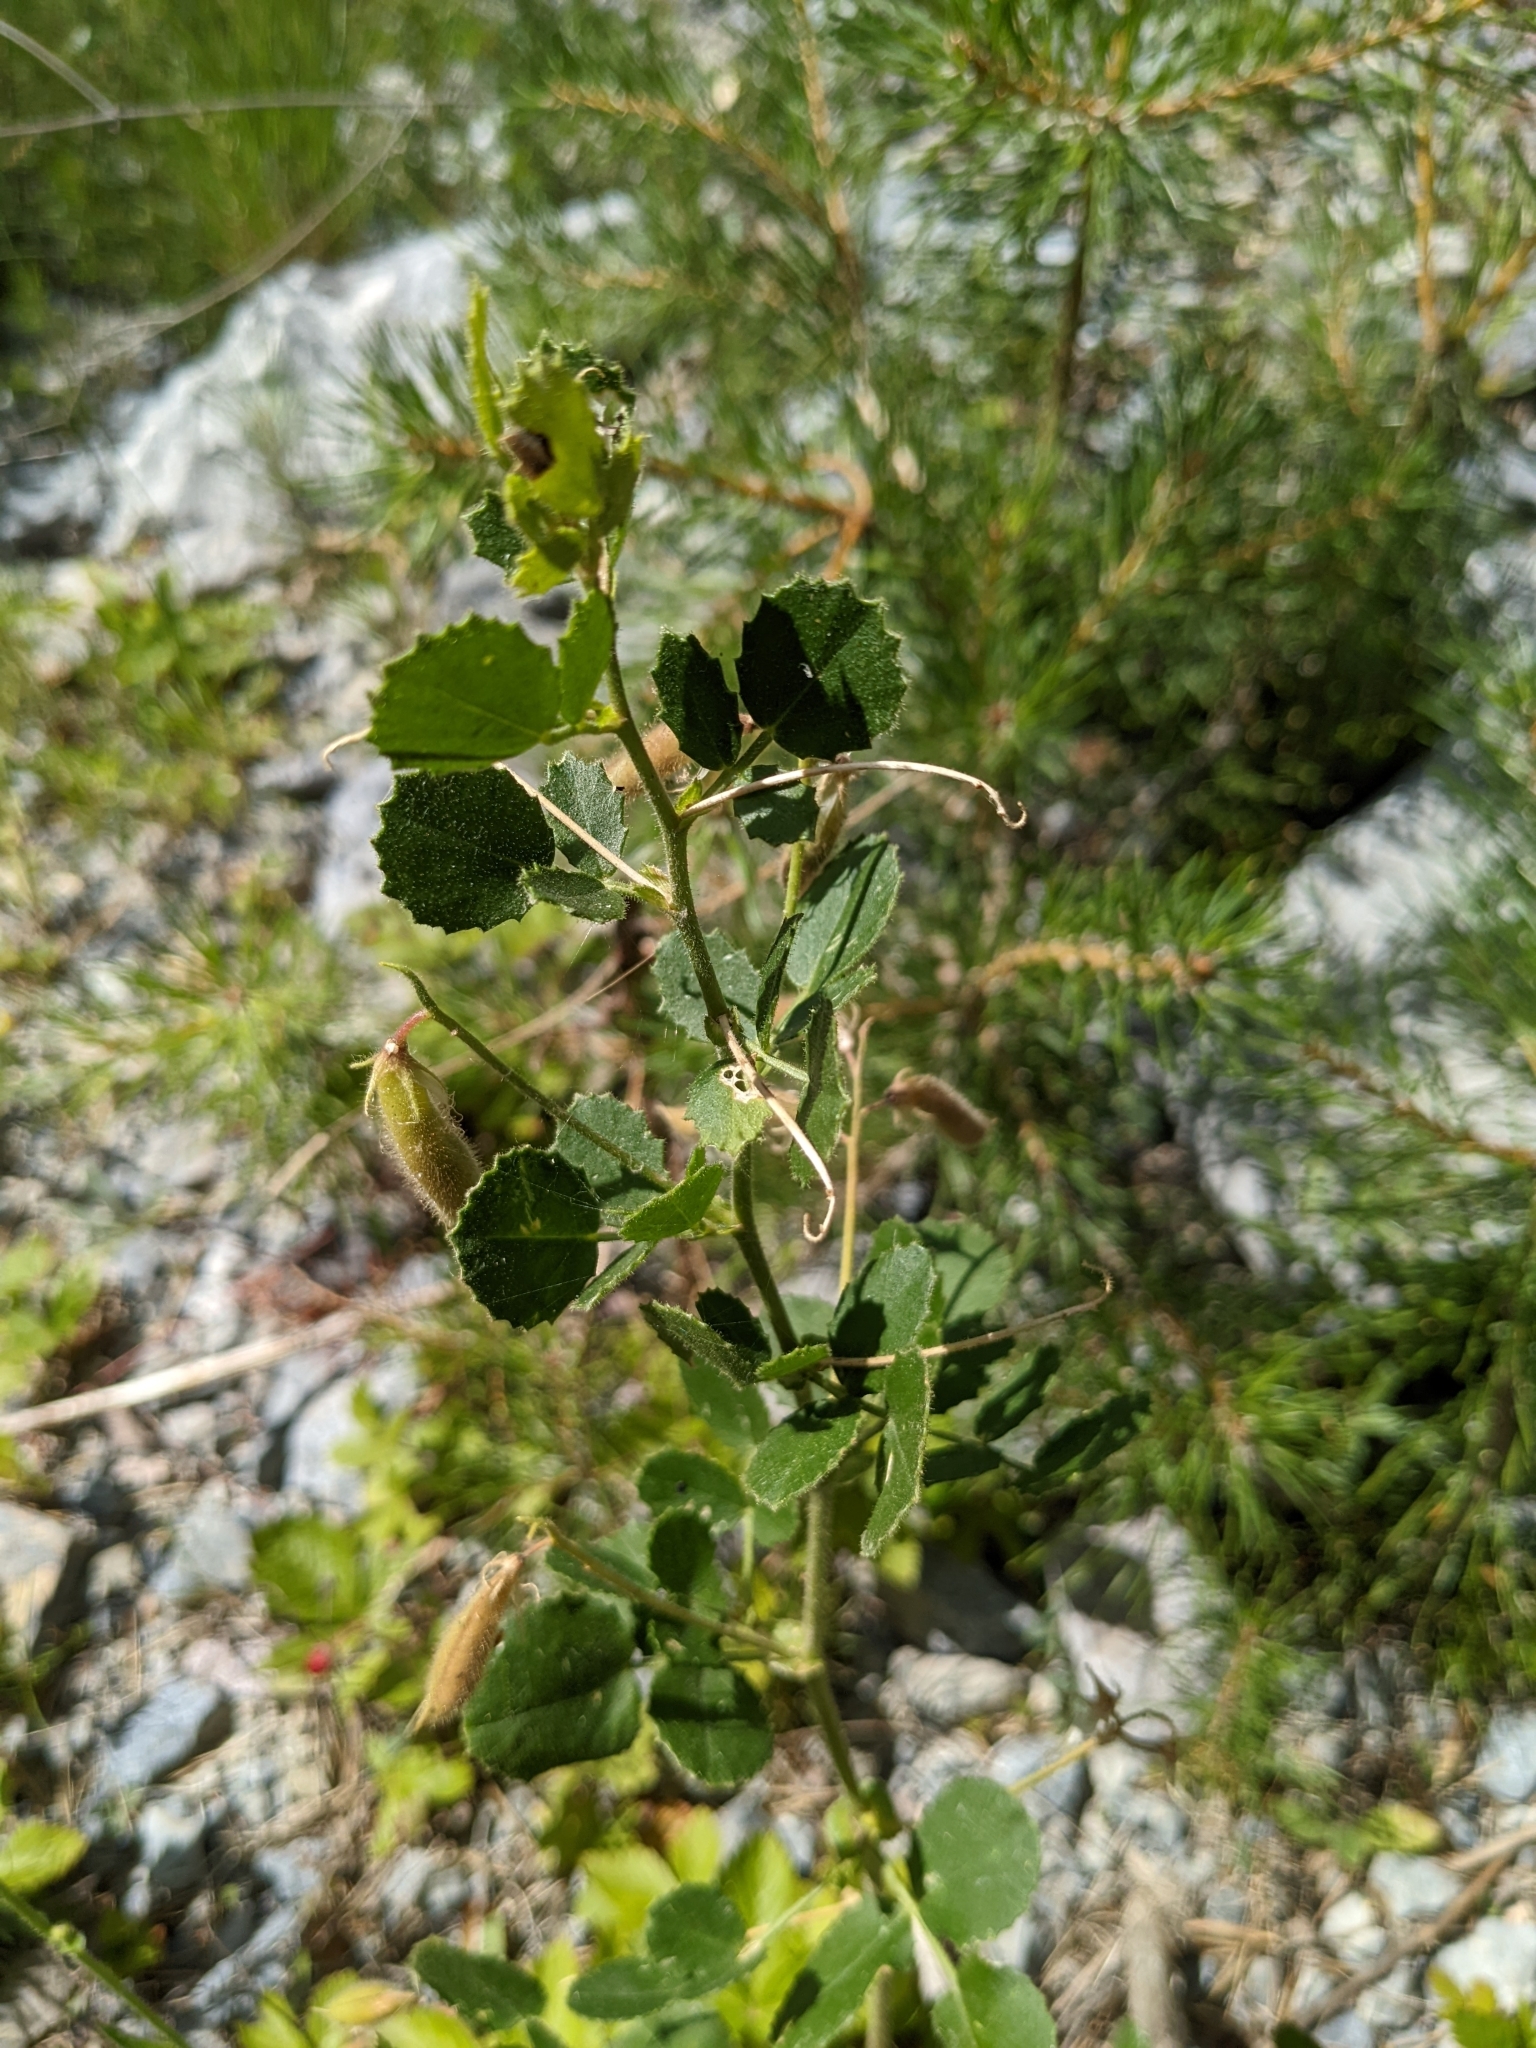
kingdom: Plantae
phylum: Tracheophyta
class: Magnoliopsida
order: Fabales
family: Fabaceae
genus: Ononis
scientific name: Ononis rotundifolia
